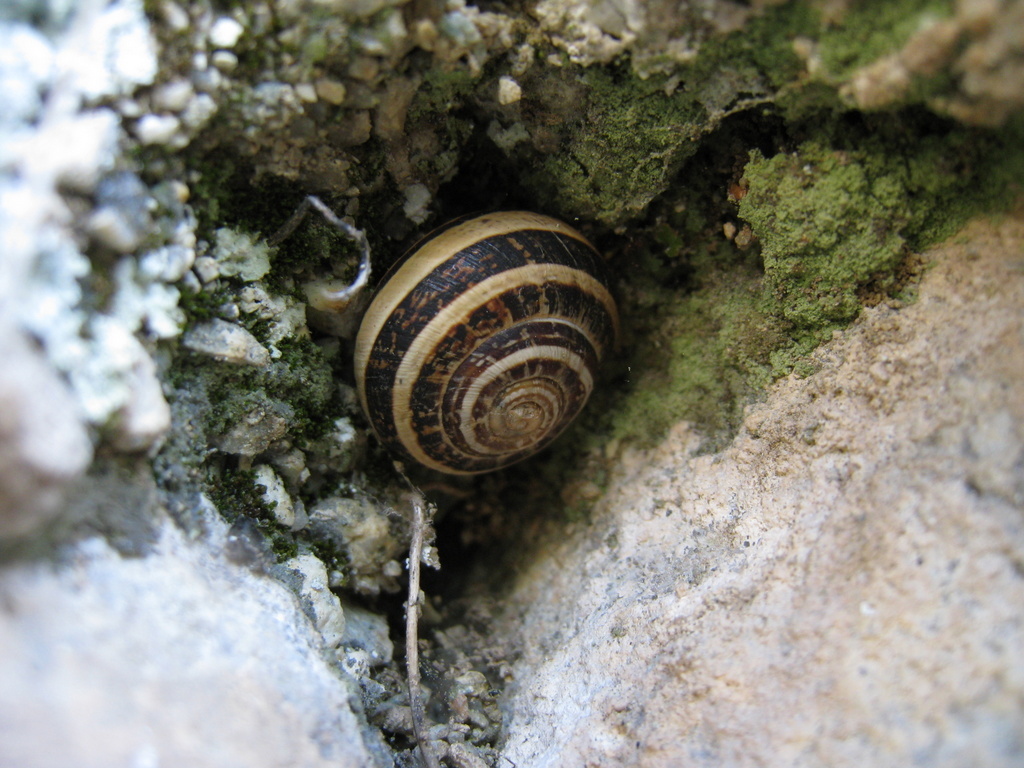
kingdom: Animalia
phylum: Mollusca
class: Gastropoda
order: Stylommatophora
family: Helicidae
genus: Eobania
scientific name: Eobania vermiculata
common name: Chocolateband snail
